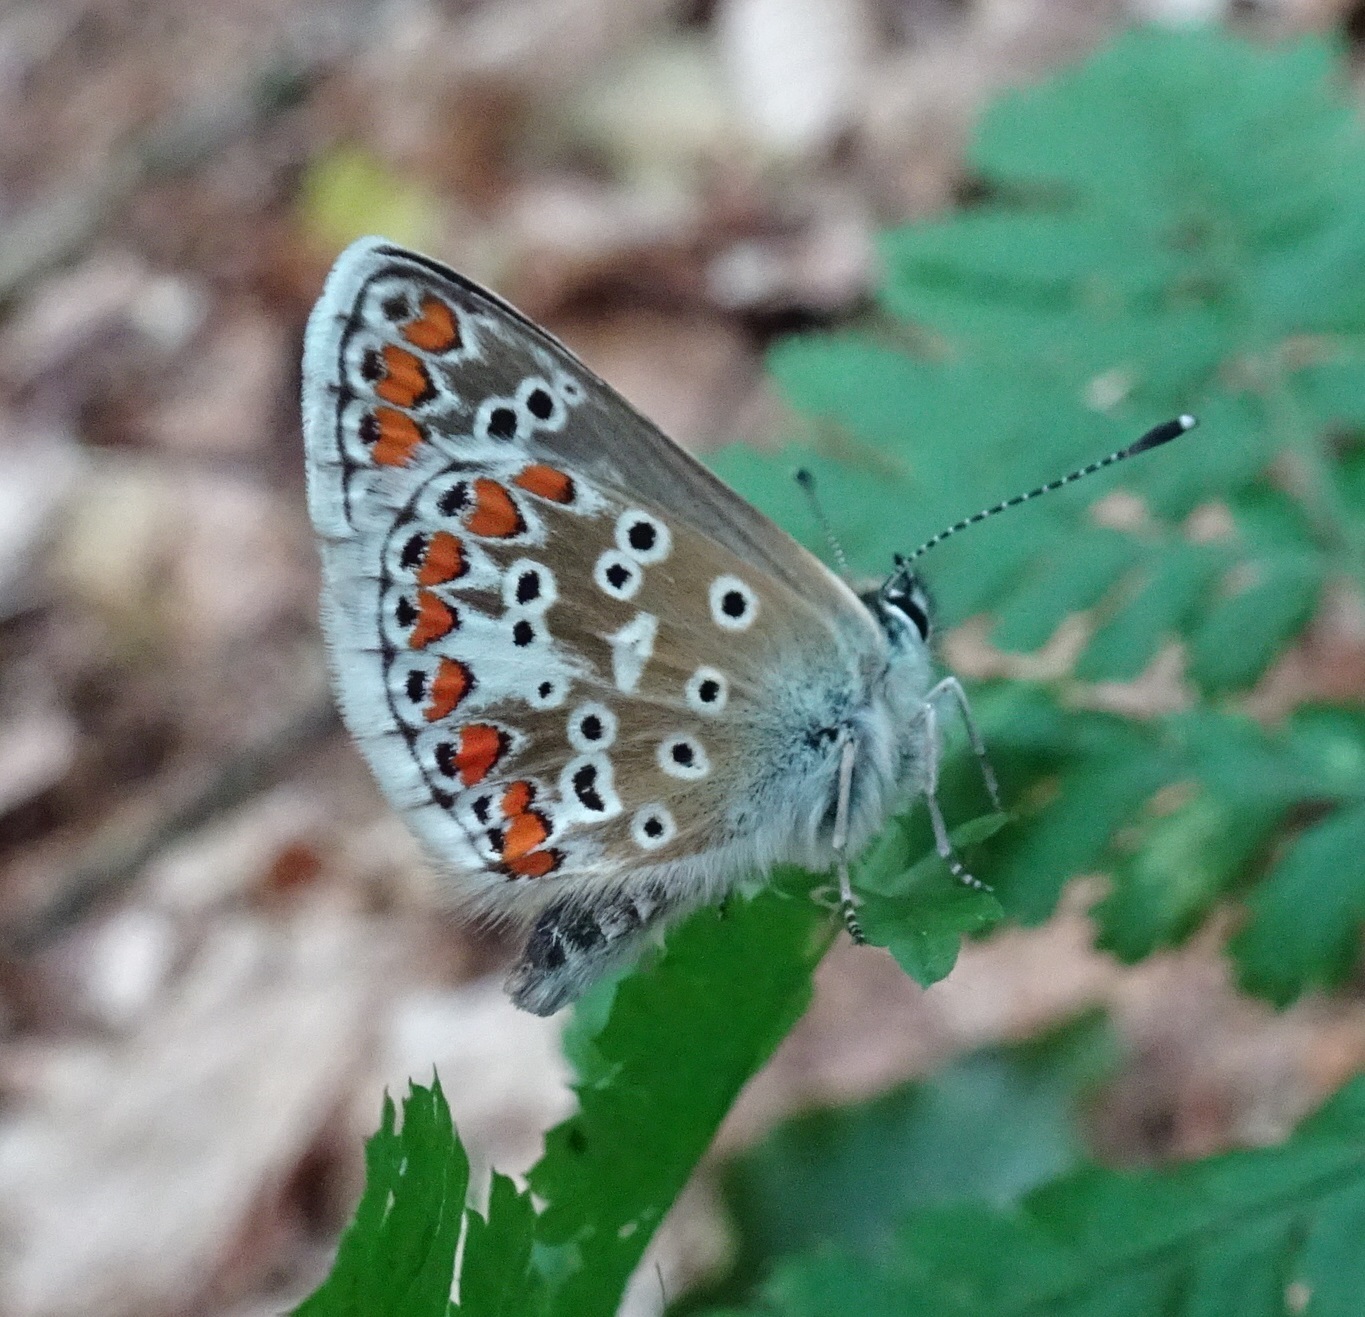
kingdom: Animalia
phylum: Arthropoda
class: Insecta
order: Lepidoptera
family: Lycaenidae
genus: Aricia
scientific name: Aricia agestis
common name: Brown argus
